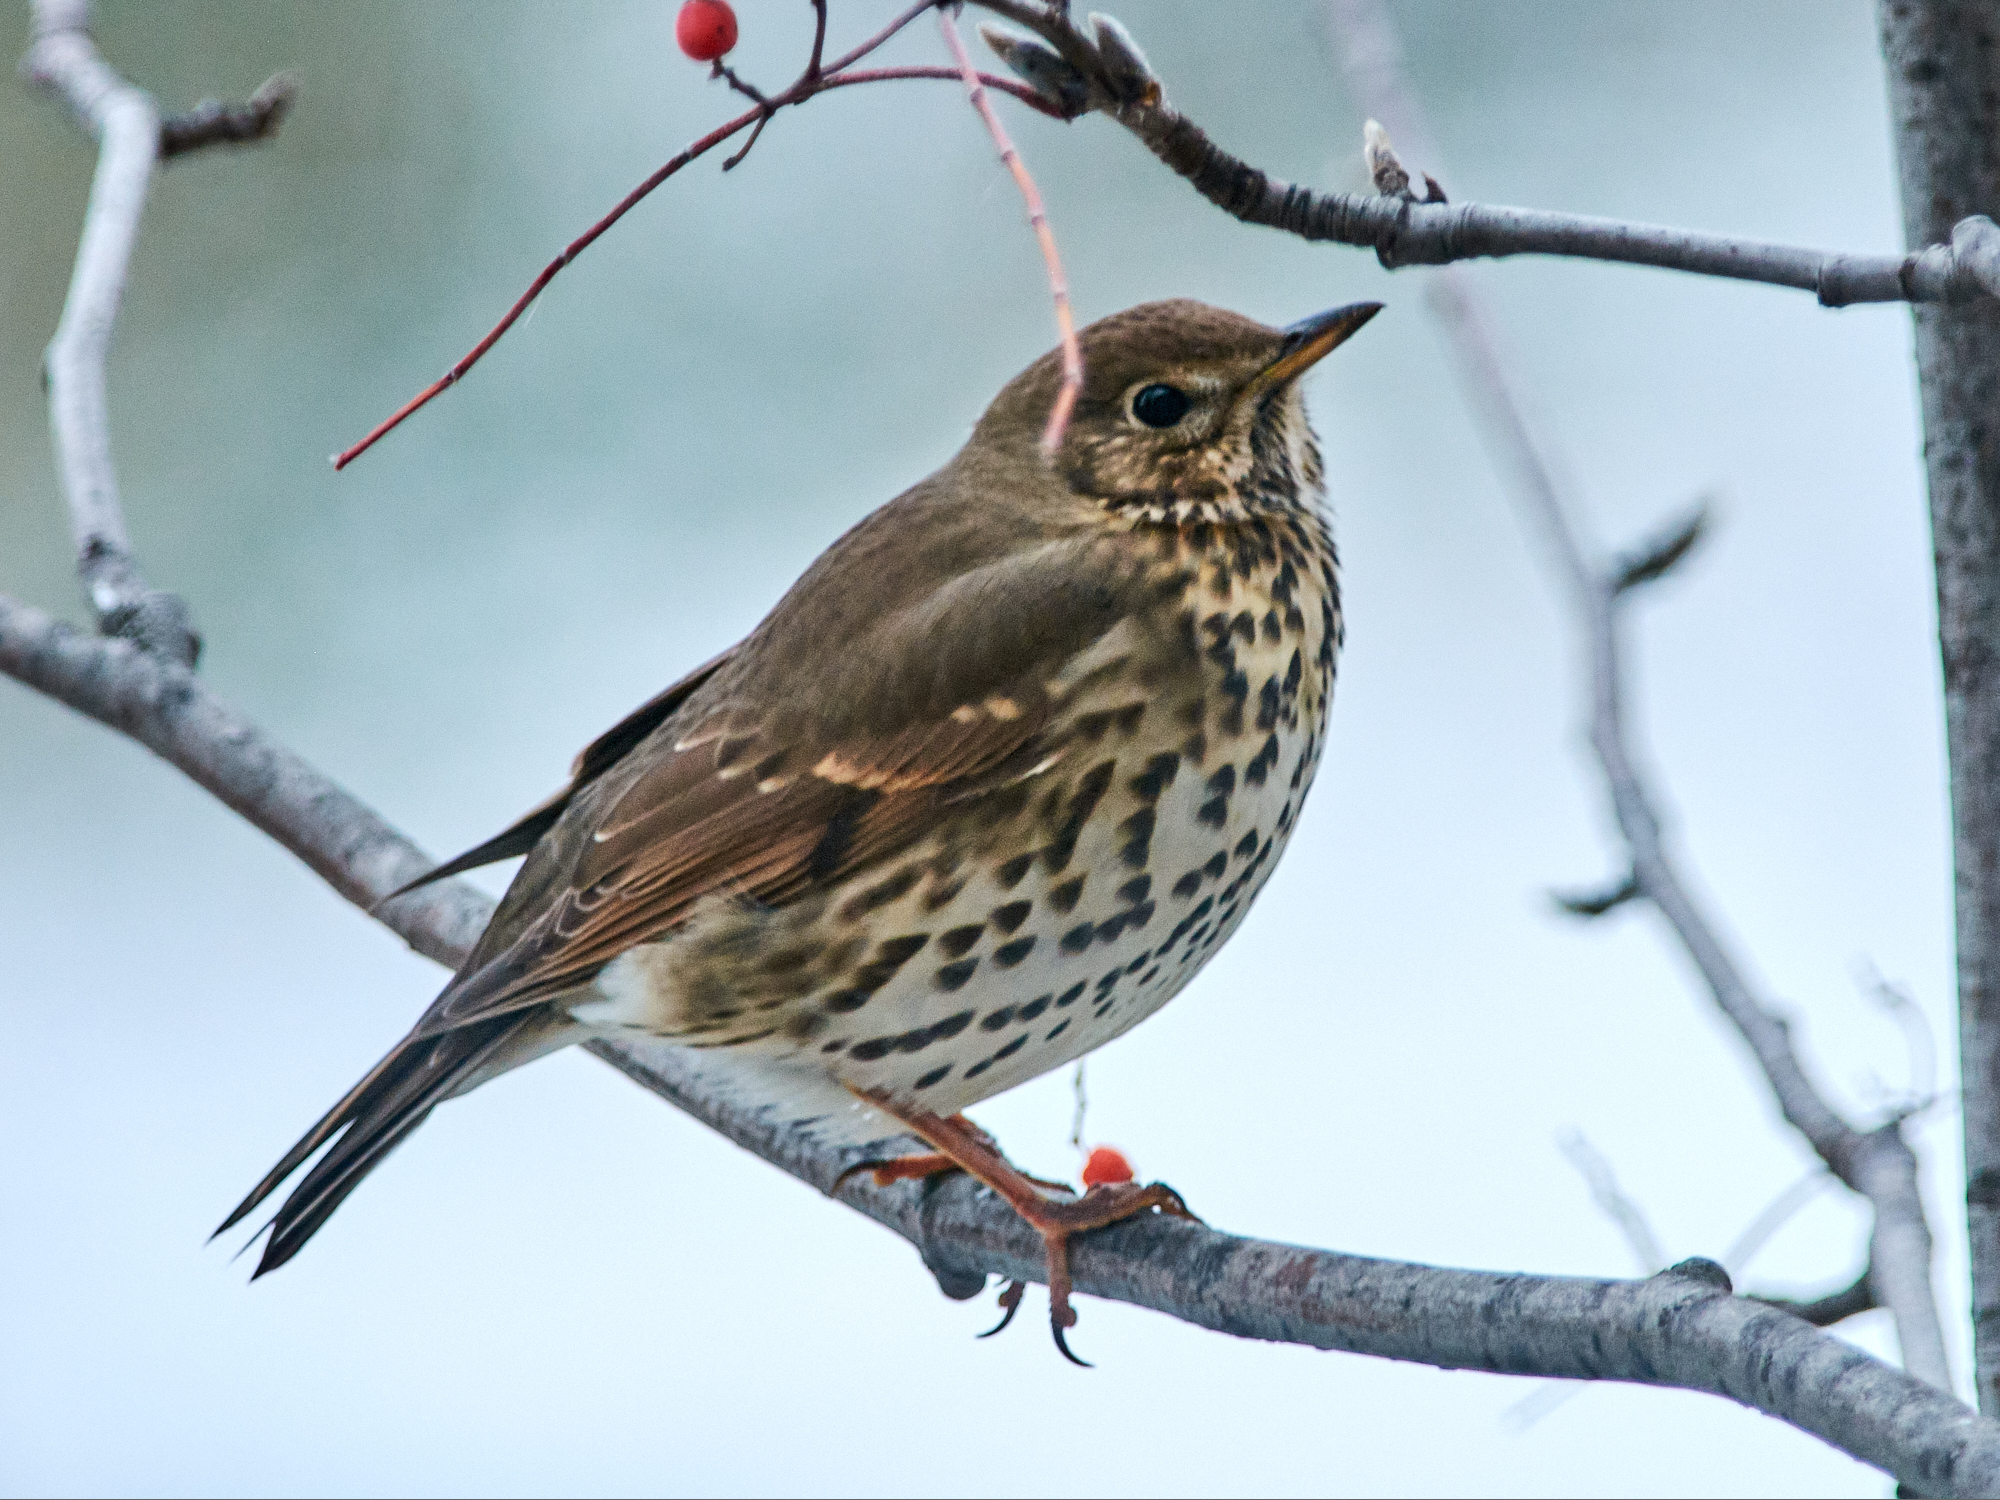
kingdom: Animalia
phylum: Chordata
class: Aves
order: Passeriformes
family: Turdidae
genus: Turdus
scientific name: Turdus philomelos
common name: Song thrush
